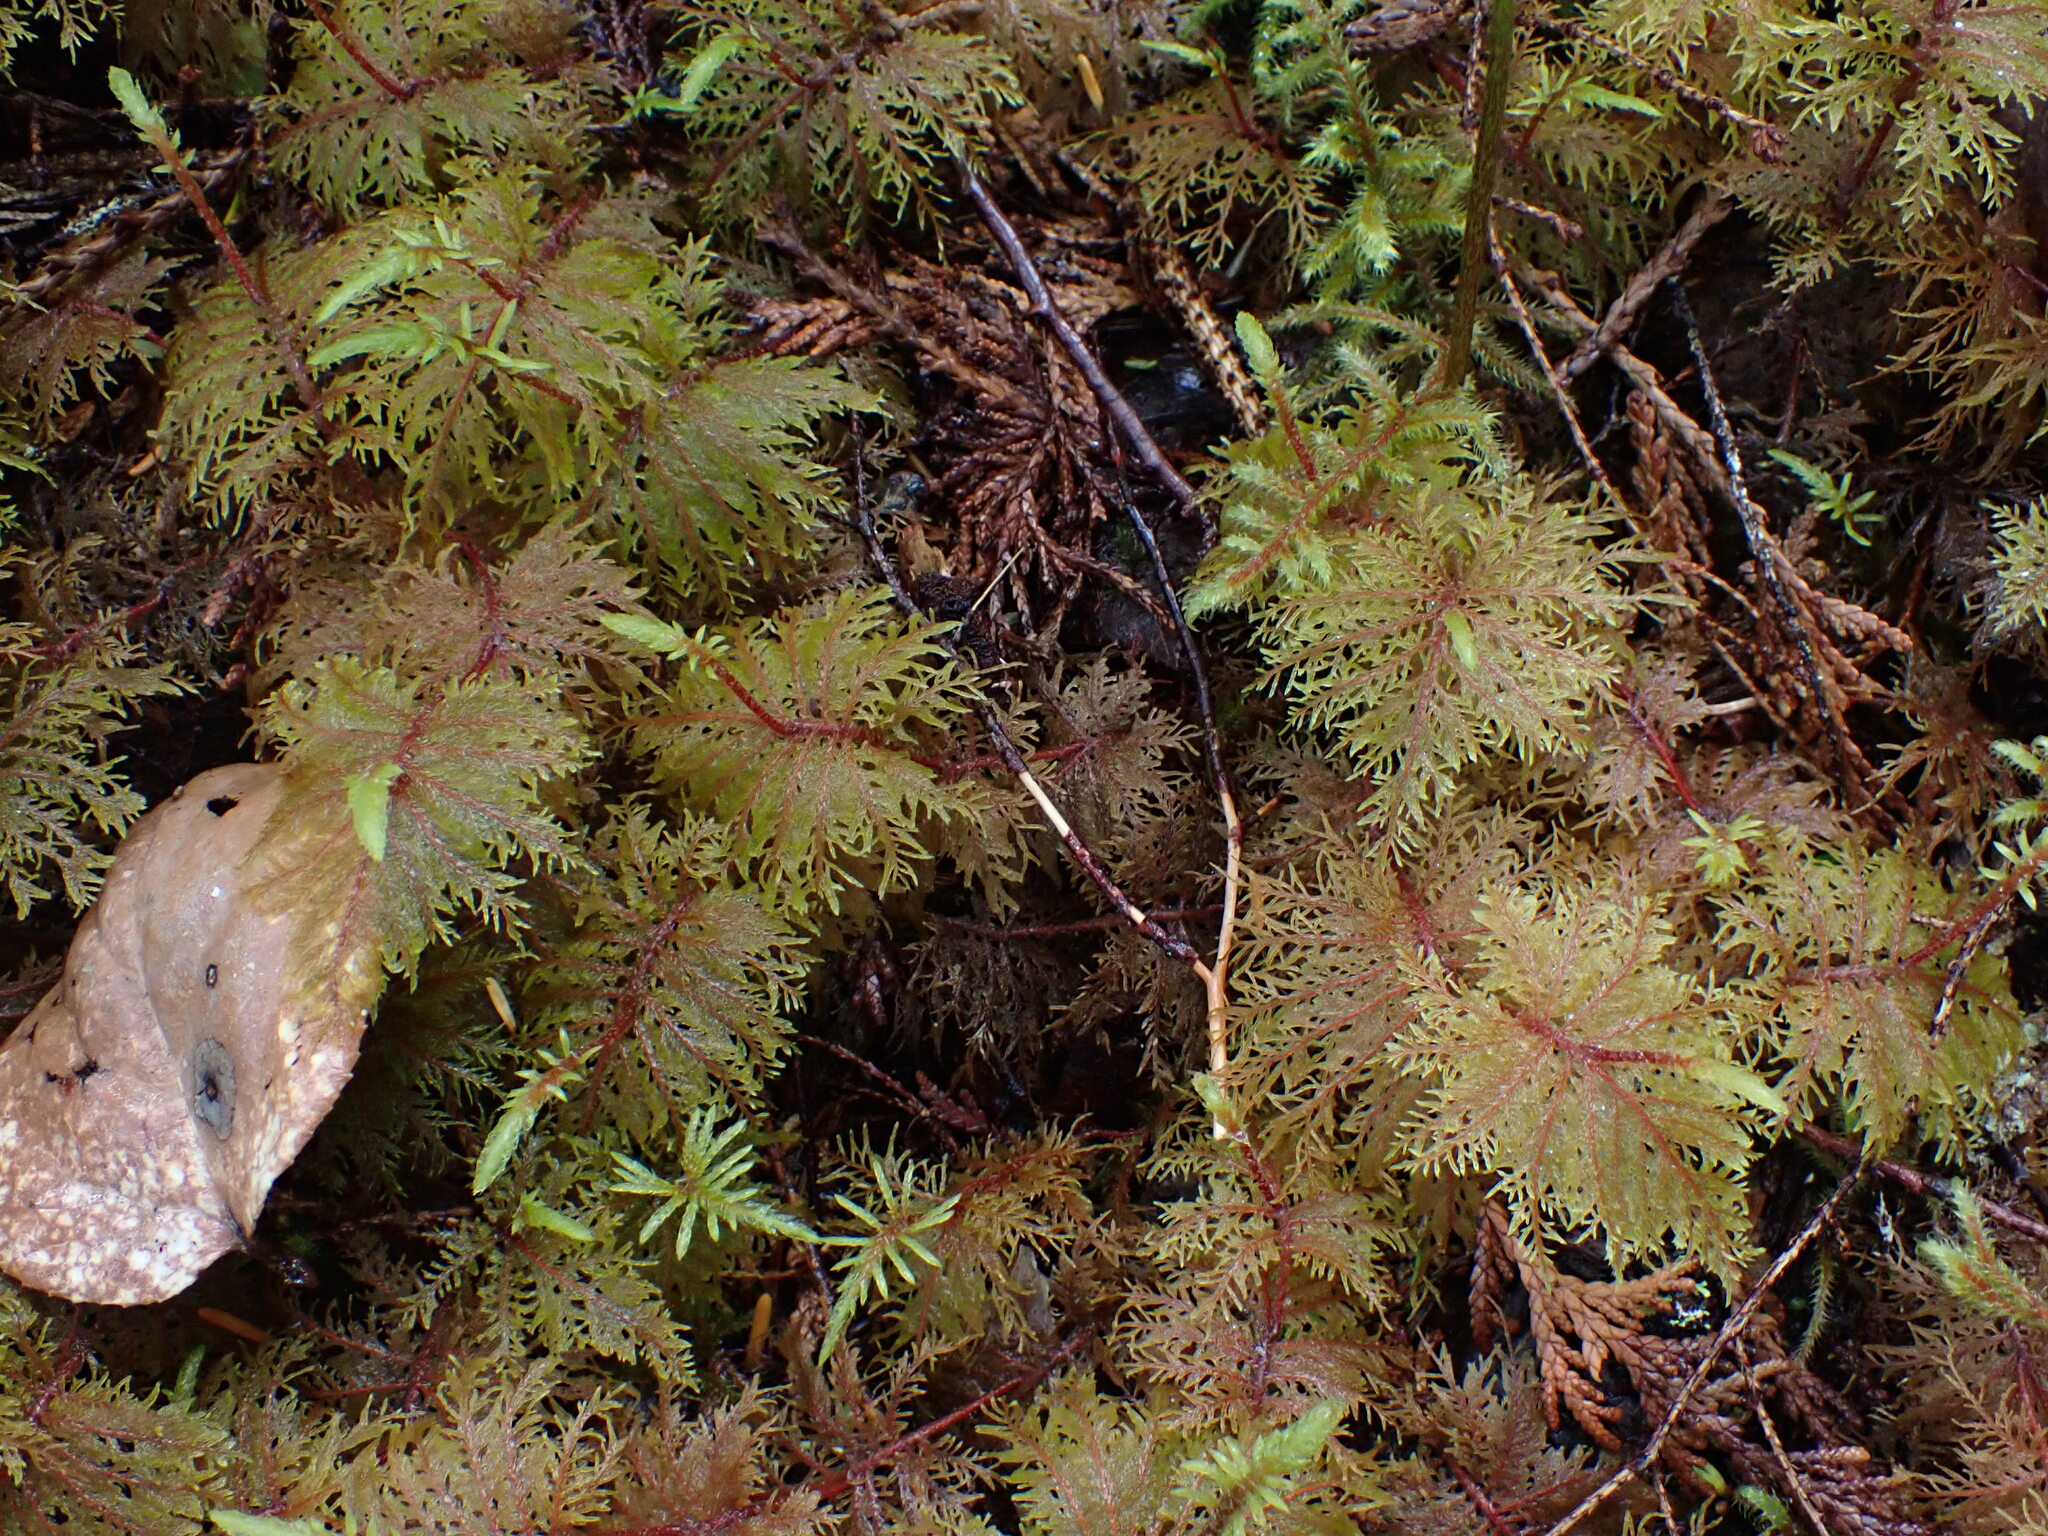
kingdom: Plantae
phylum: Bryophyta
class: Bryopsida
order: Hypnales
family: Hylocomiaceae
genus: Hylocomium
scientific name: Hylocomium splendens
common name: Stairstep moss
